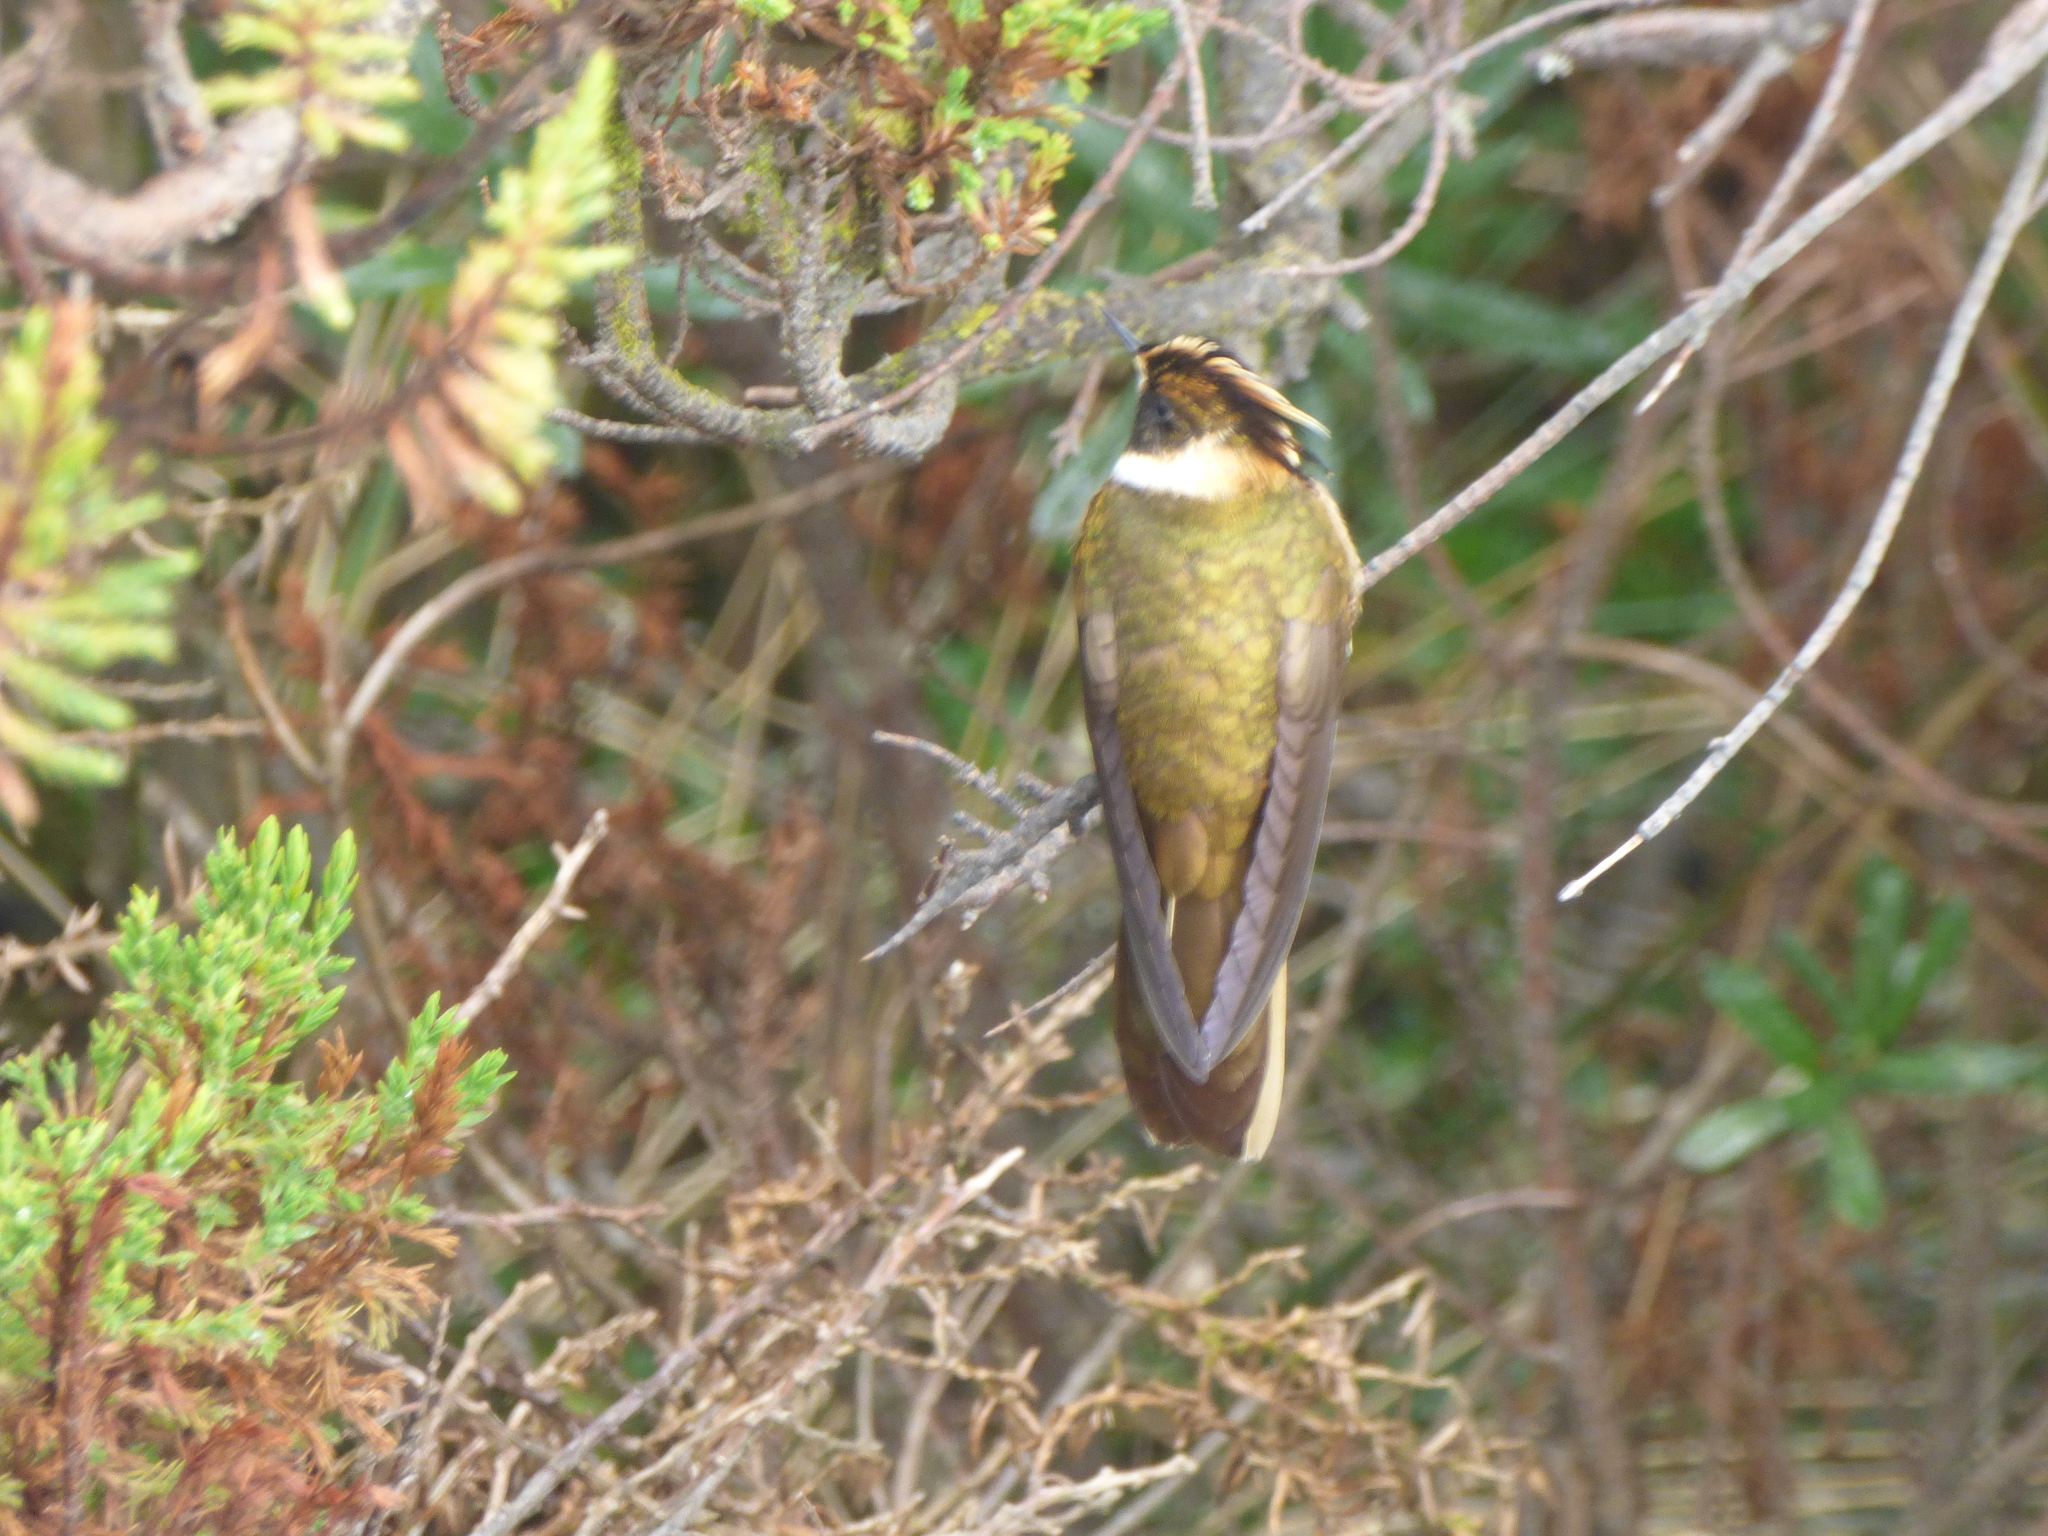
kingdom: Animalia
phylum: Chordata
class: Aves
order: Apodiformes
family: Trochilidae
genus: Oxypogon
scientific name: Oxypogon stuebelii
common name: Buffy helmetcrest
